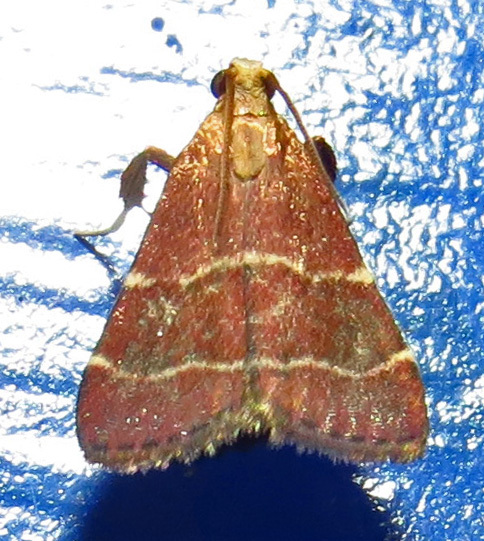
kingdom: Animalia
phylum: Arthropoda
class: Insecta
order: Lepidoptera
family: Pyralidae
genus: Arta
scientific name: Arta statalis
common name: Posturing arta moth
